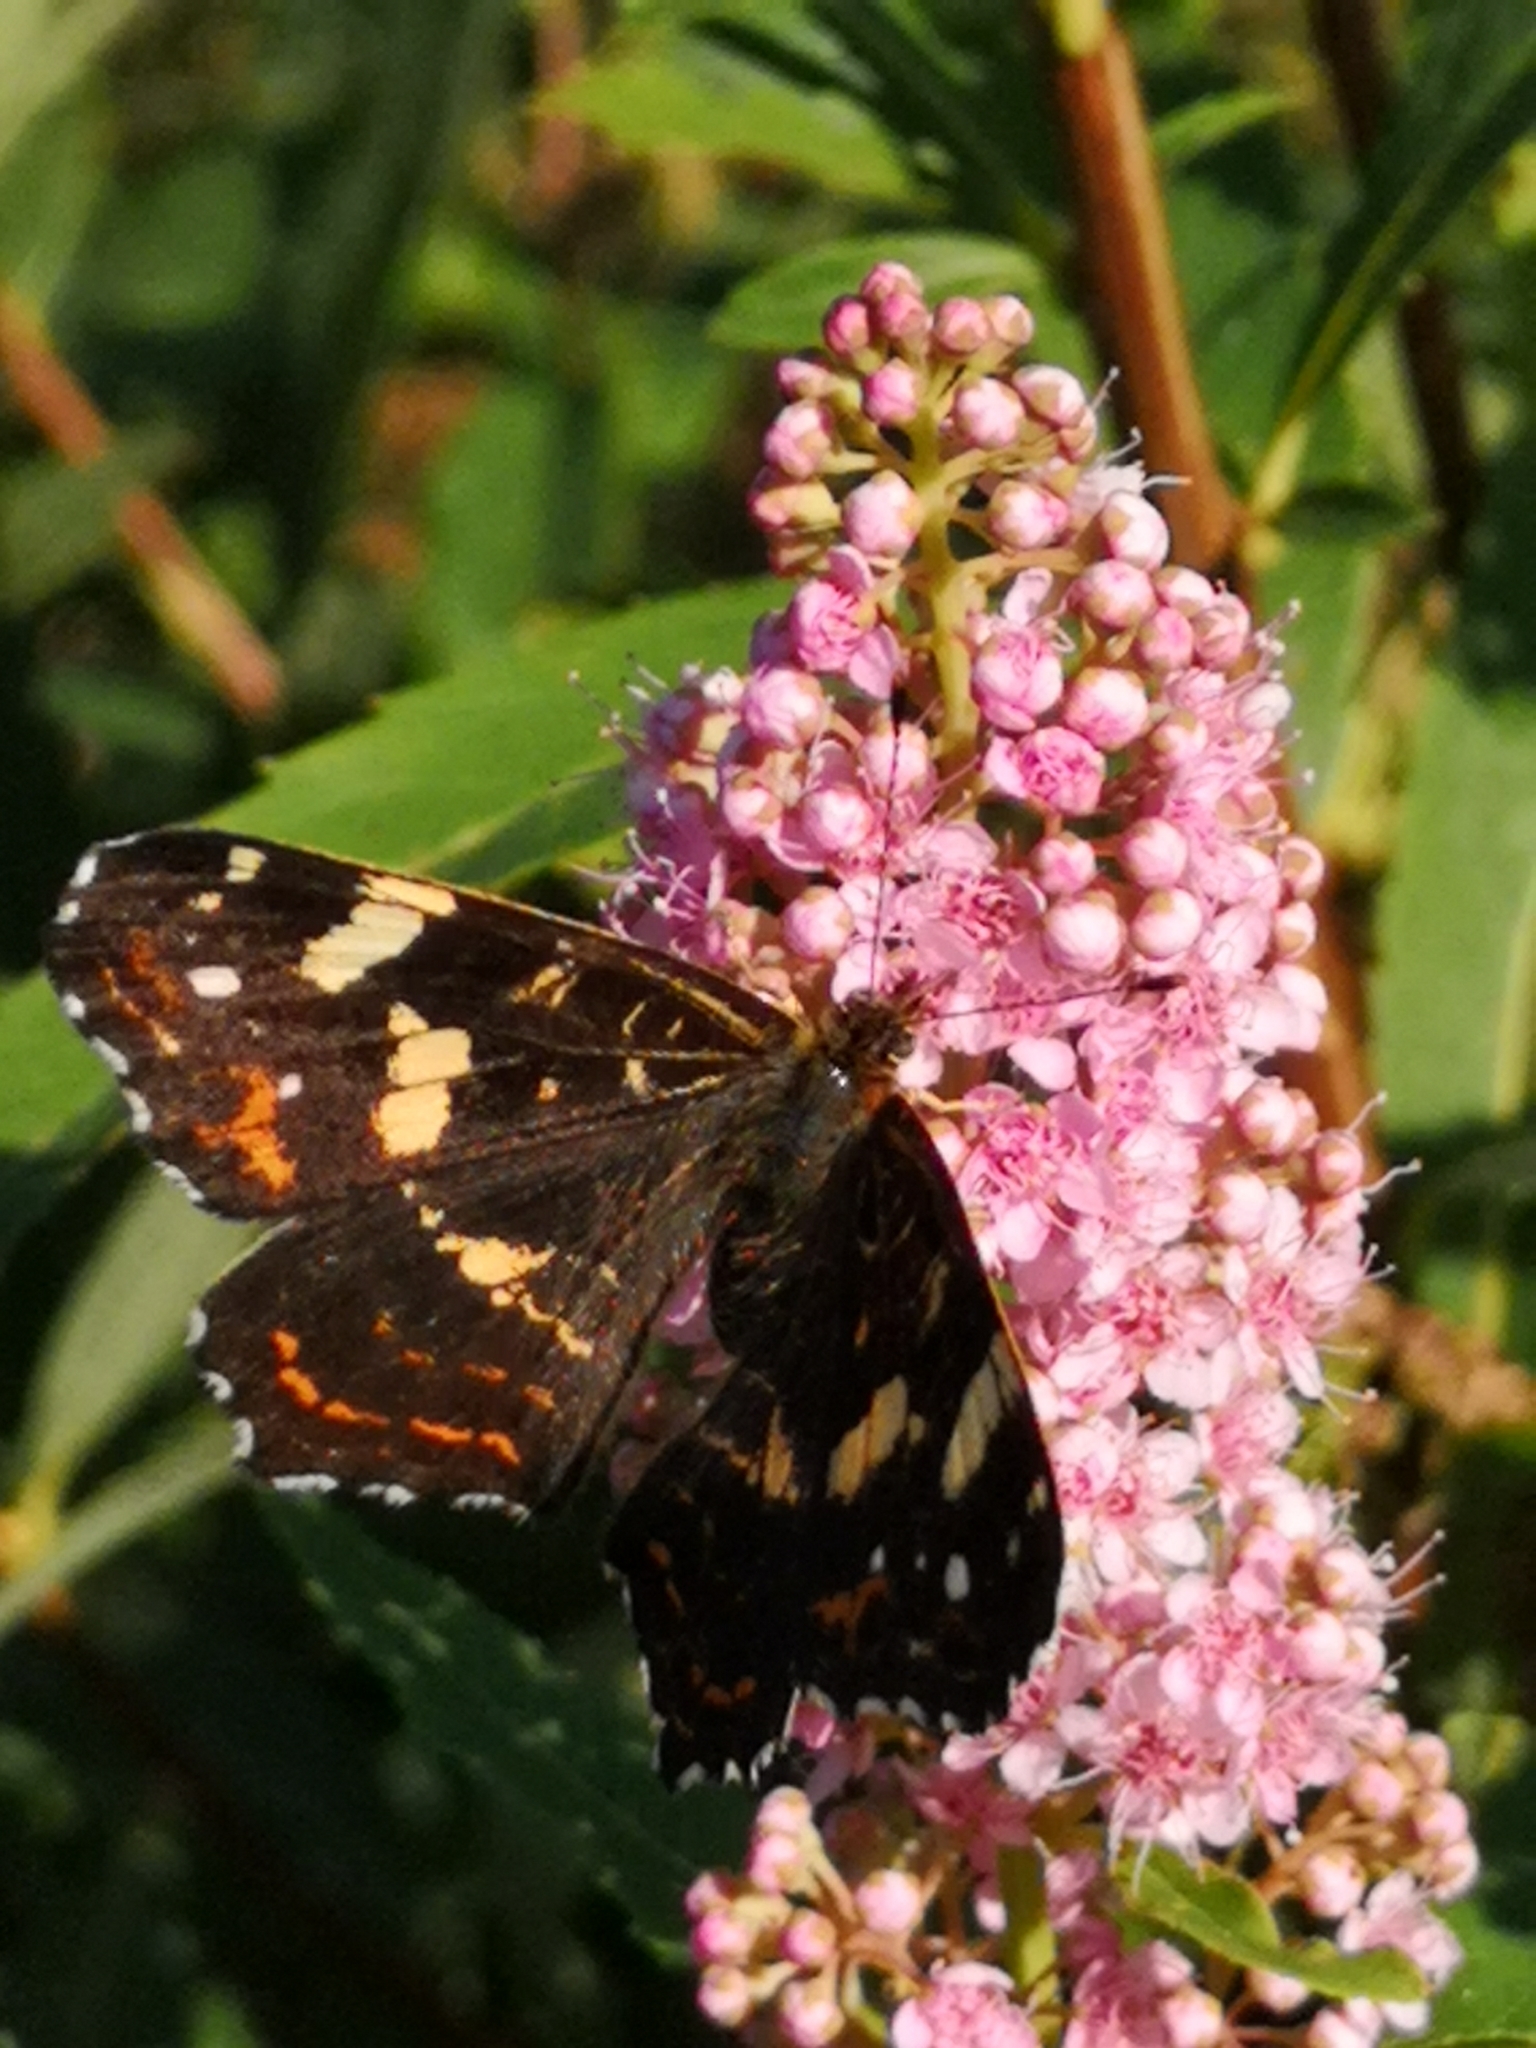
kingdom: Animalia
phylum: Arthropoda
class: Insecta
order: Lepidoptera
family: Nymphalidae
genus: Araschnia
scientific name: Araschnia levana
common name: Map butterfly
